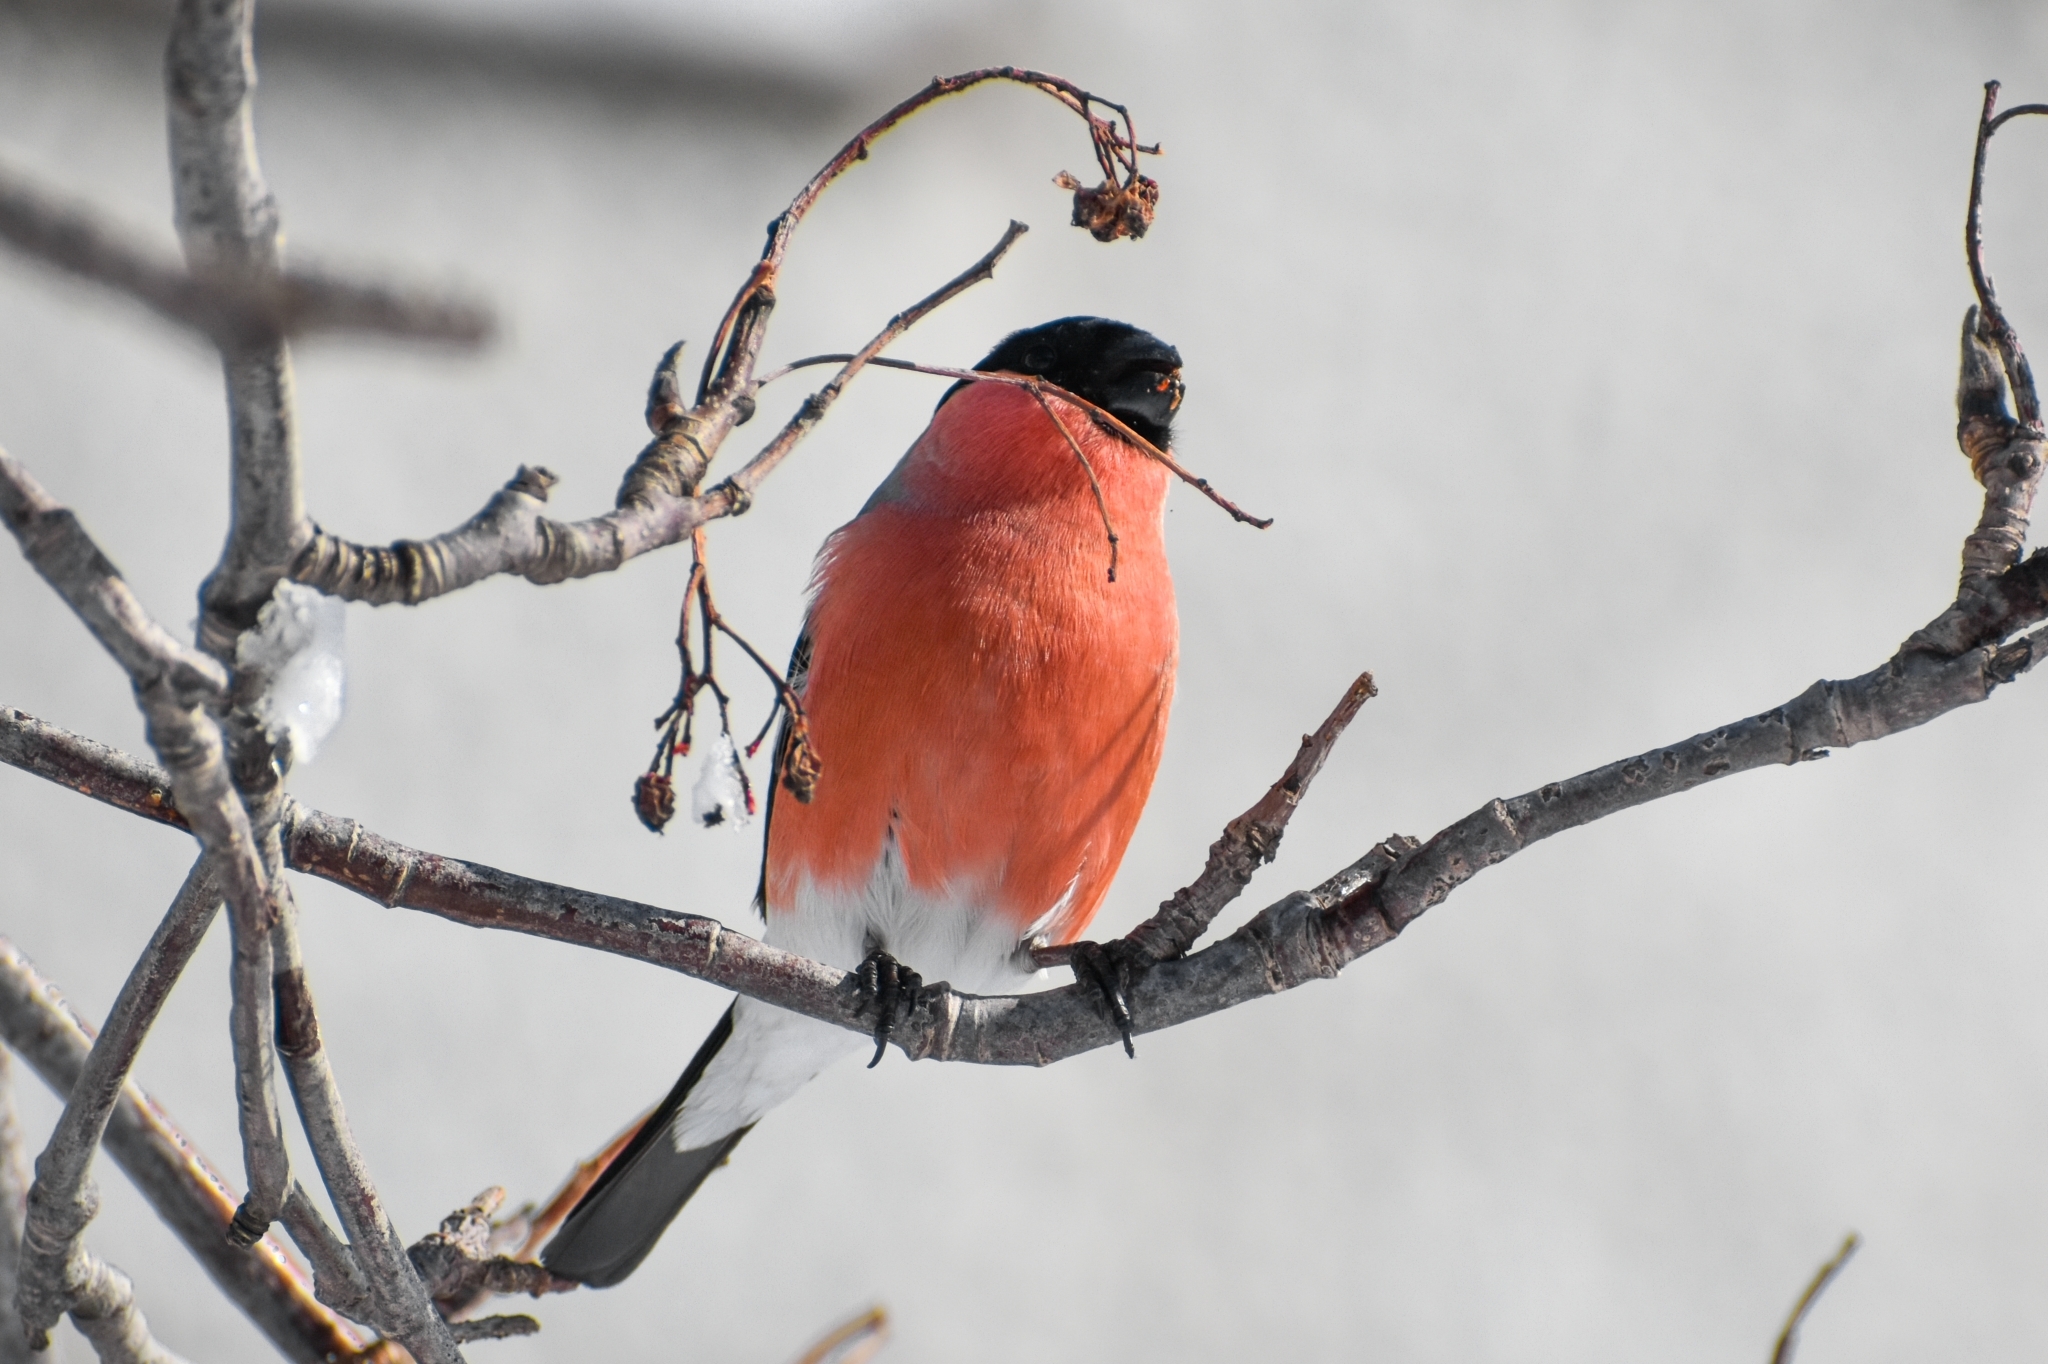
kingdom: Animalia
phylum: Chordata
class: Aves
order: Passeriformes
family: Fringillidae
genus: Pyrrhula
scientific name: Pyrrhula pyrrhula
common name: Eurasian bullfinch
